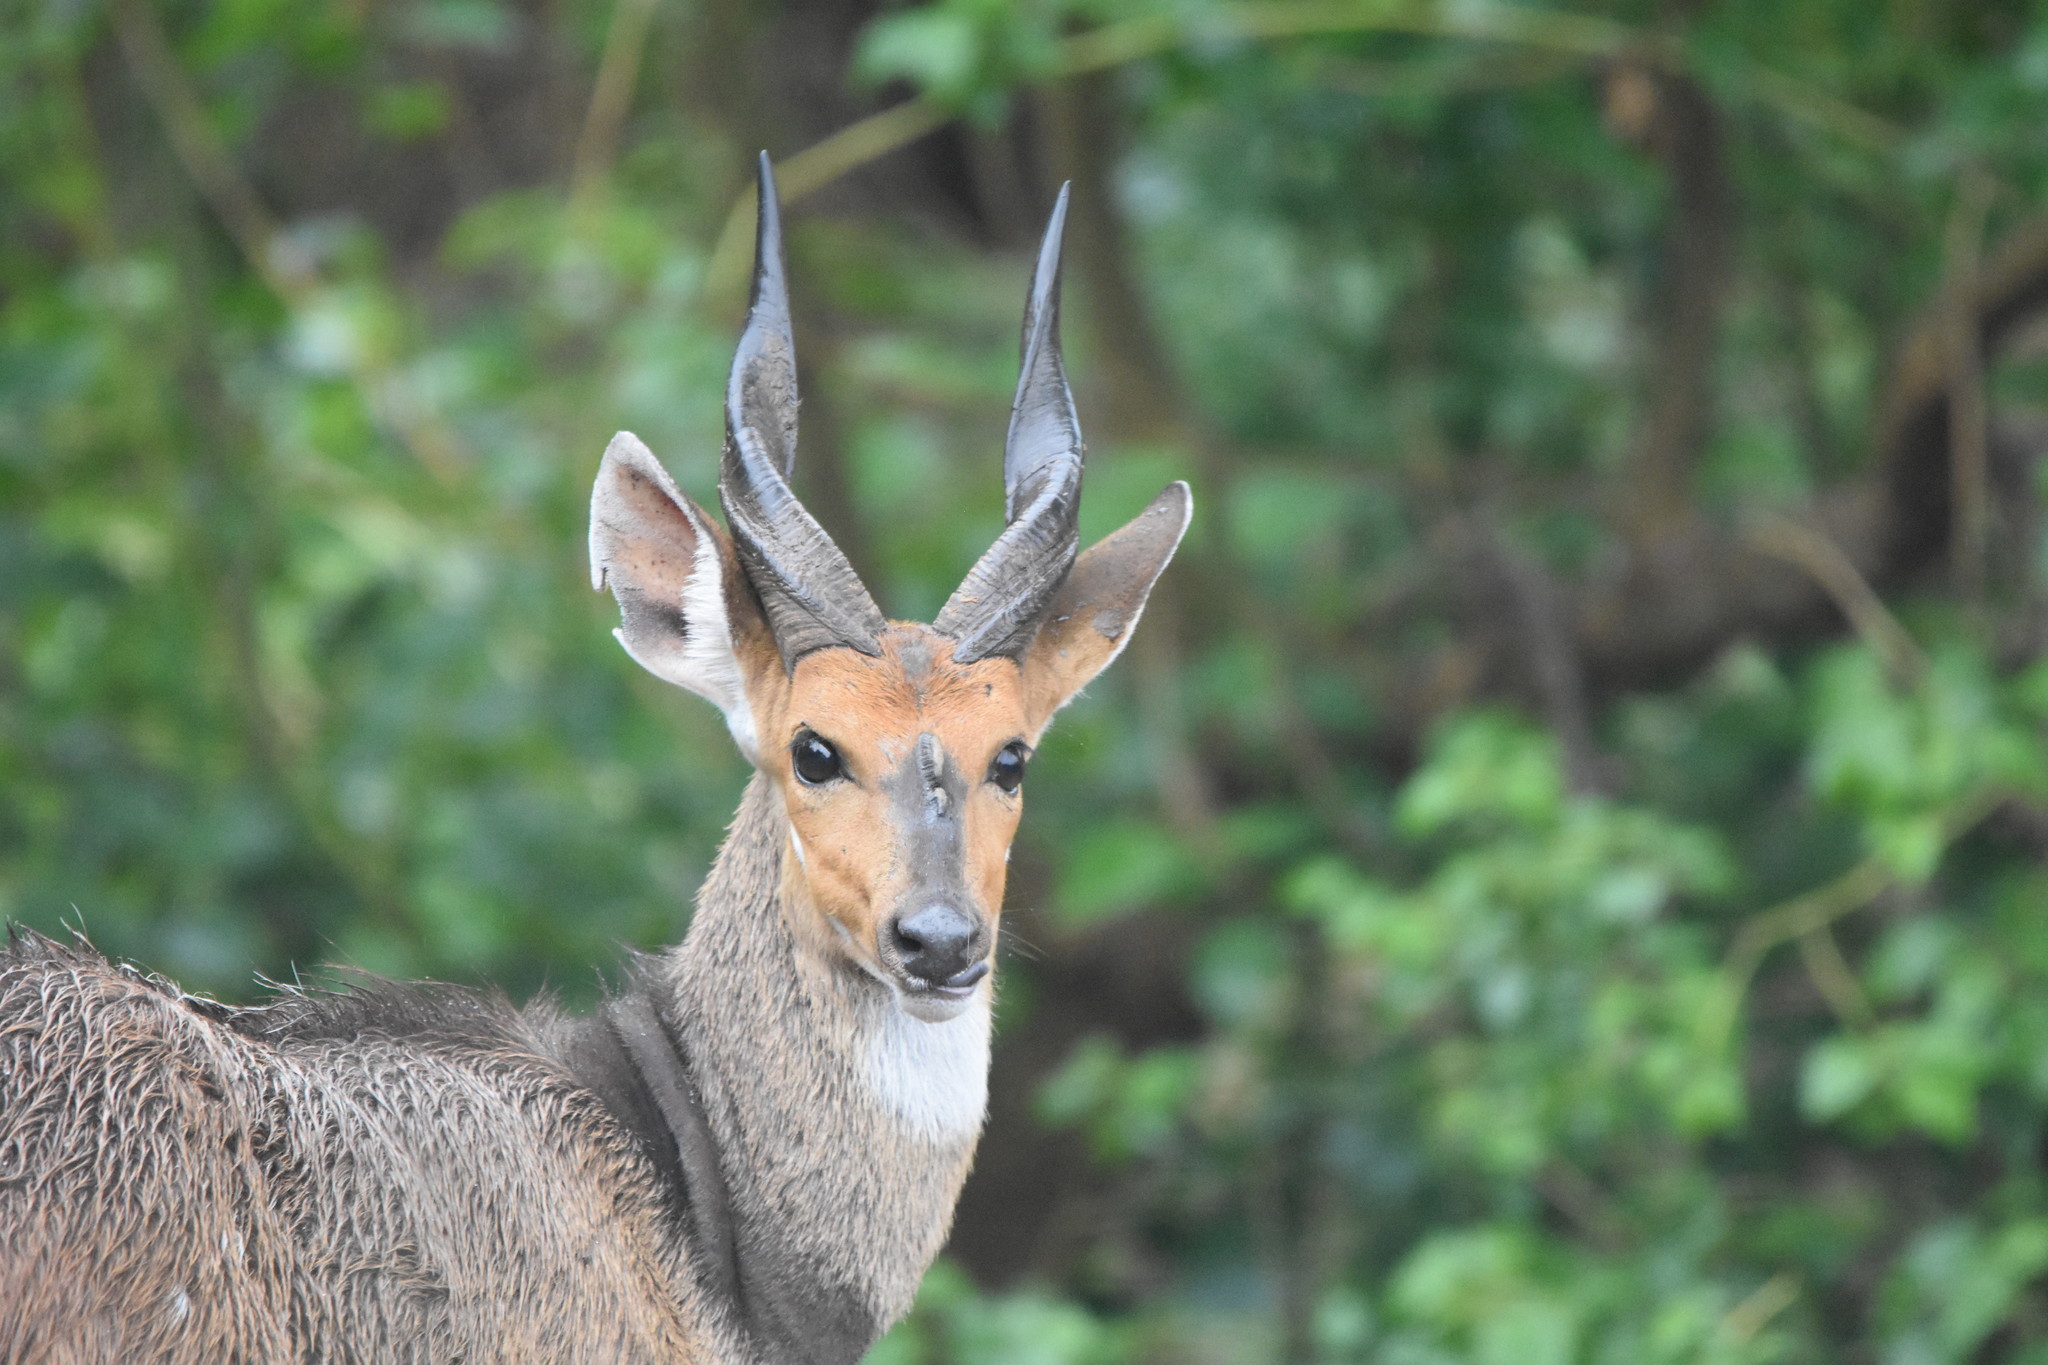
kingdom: Animalia
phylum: Chordata
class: Mammalia
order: Artiodactyla
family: Bovidae
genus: Tragelaphus
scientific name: Tragelaphus scriptus
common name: Bushbuck
